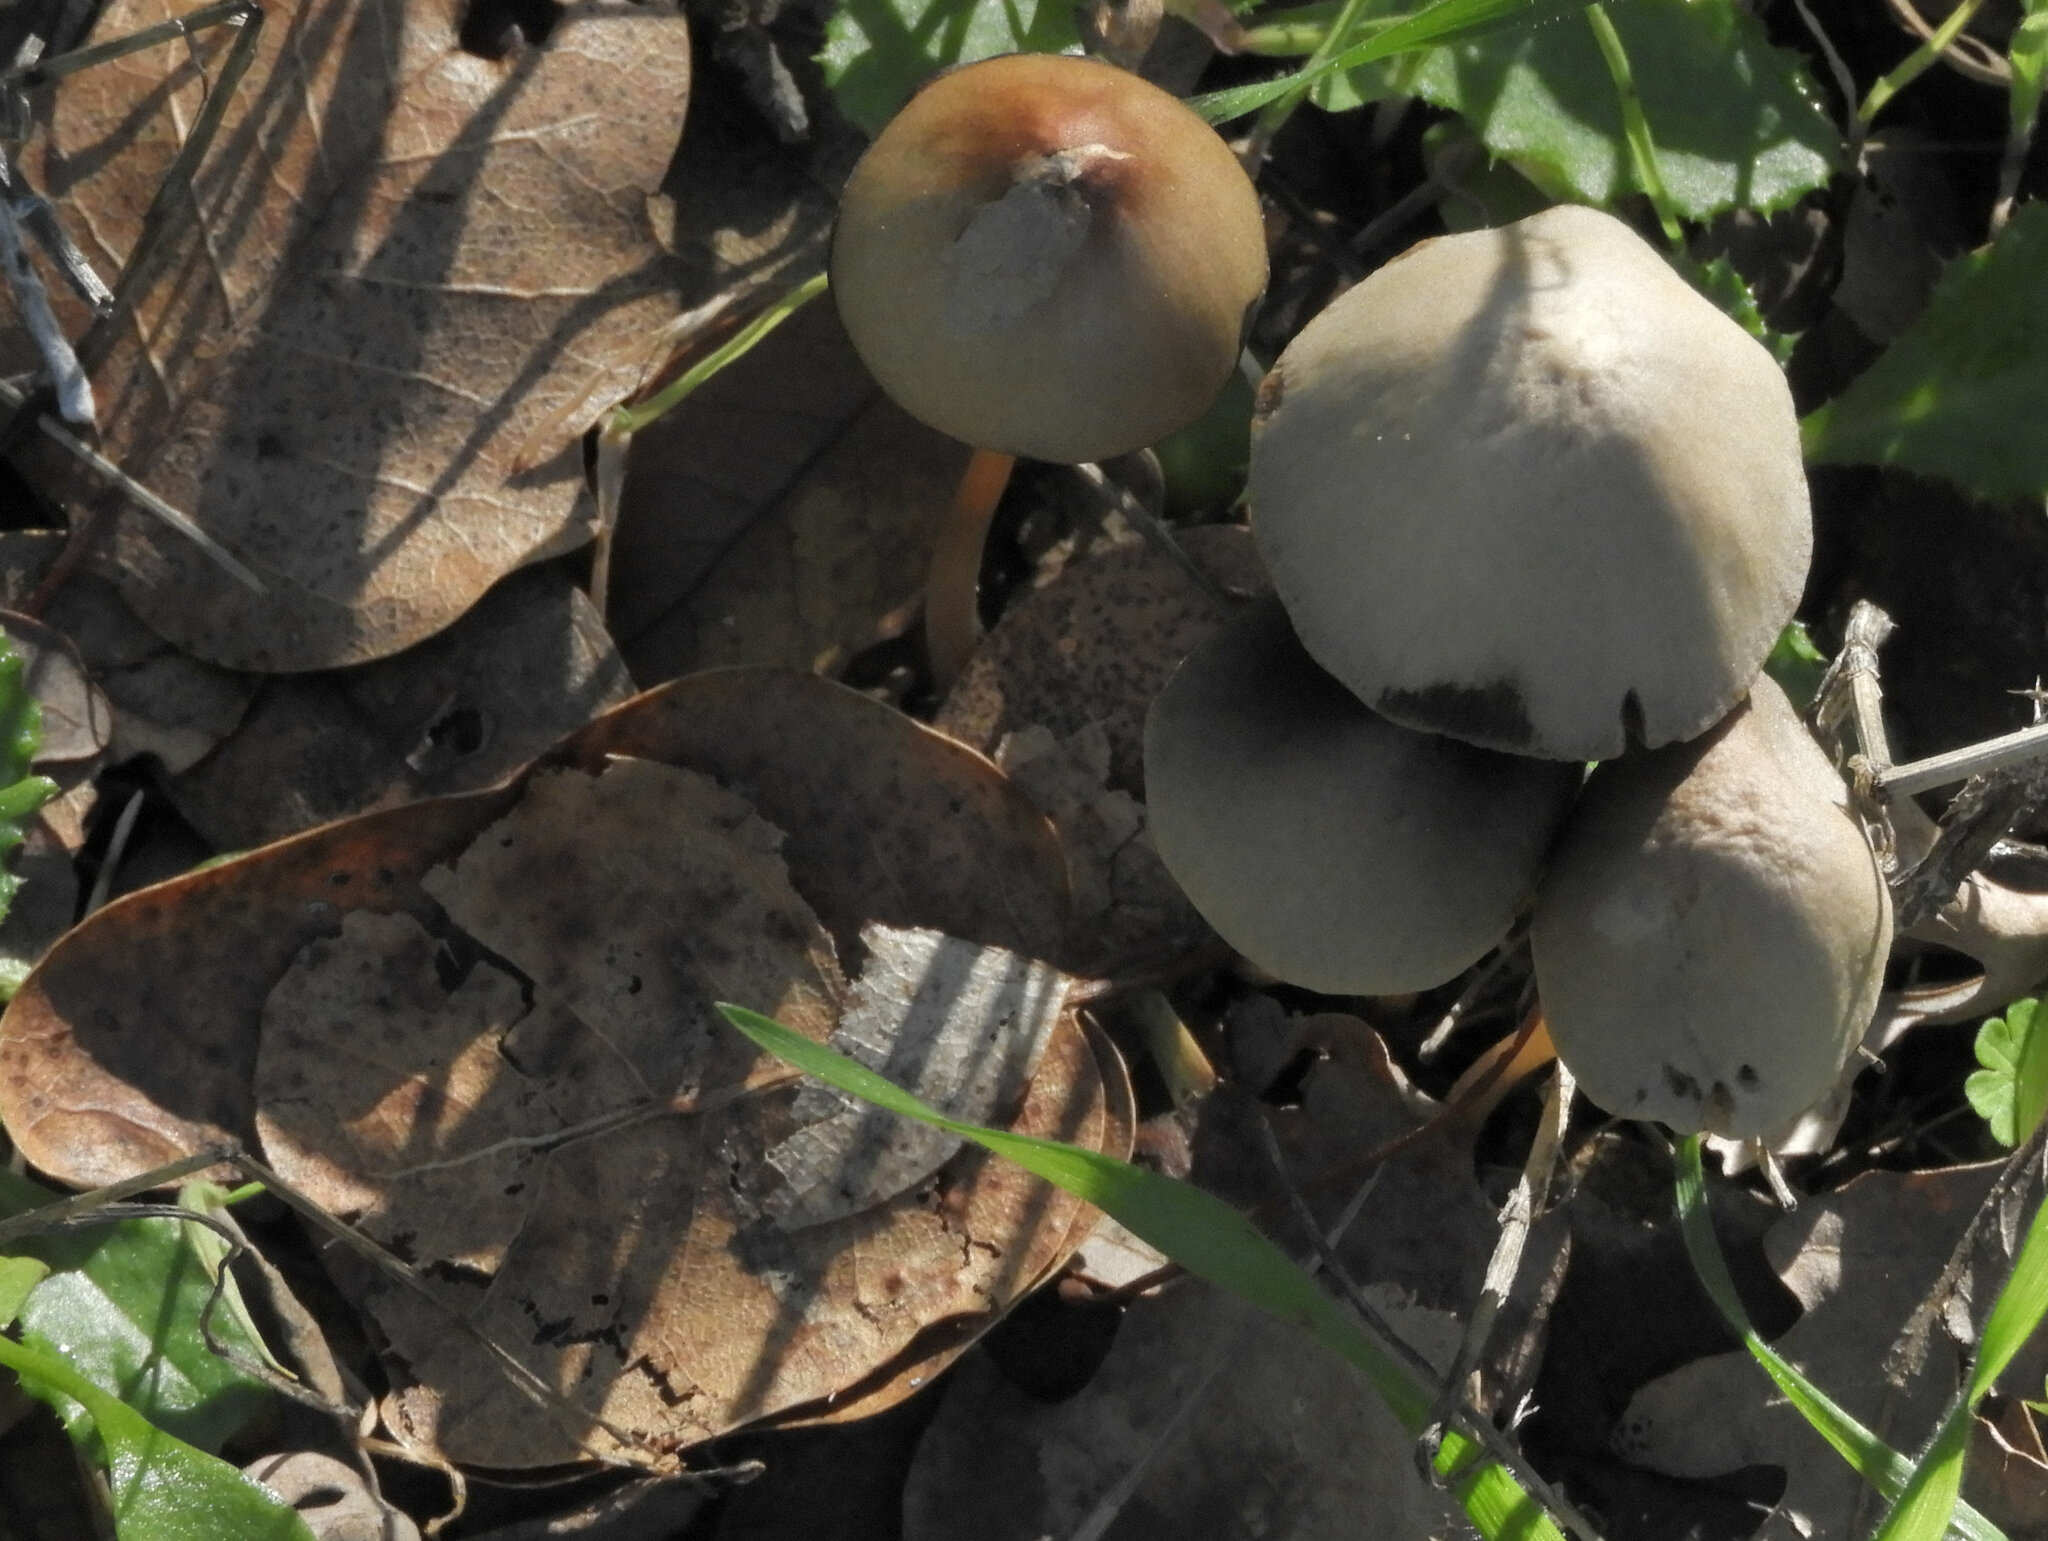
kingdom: Fungi
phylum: Basidiomycota
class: Agaricomycetes
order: Agaricales
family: Psathyrellaceae
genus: Psathyrella
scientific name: Psathyrella longipes
